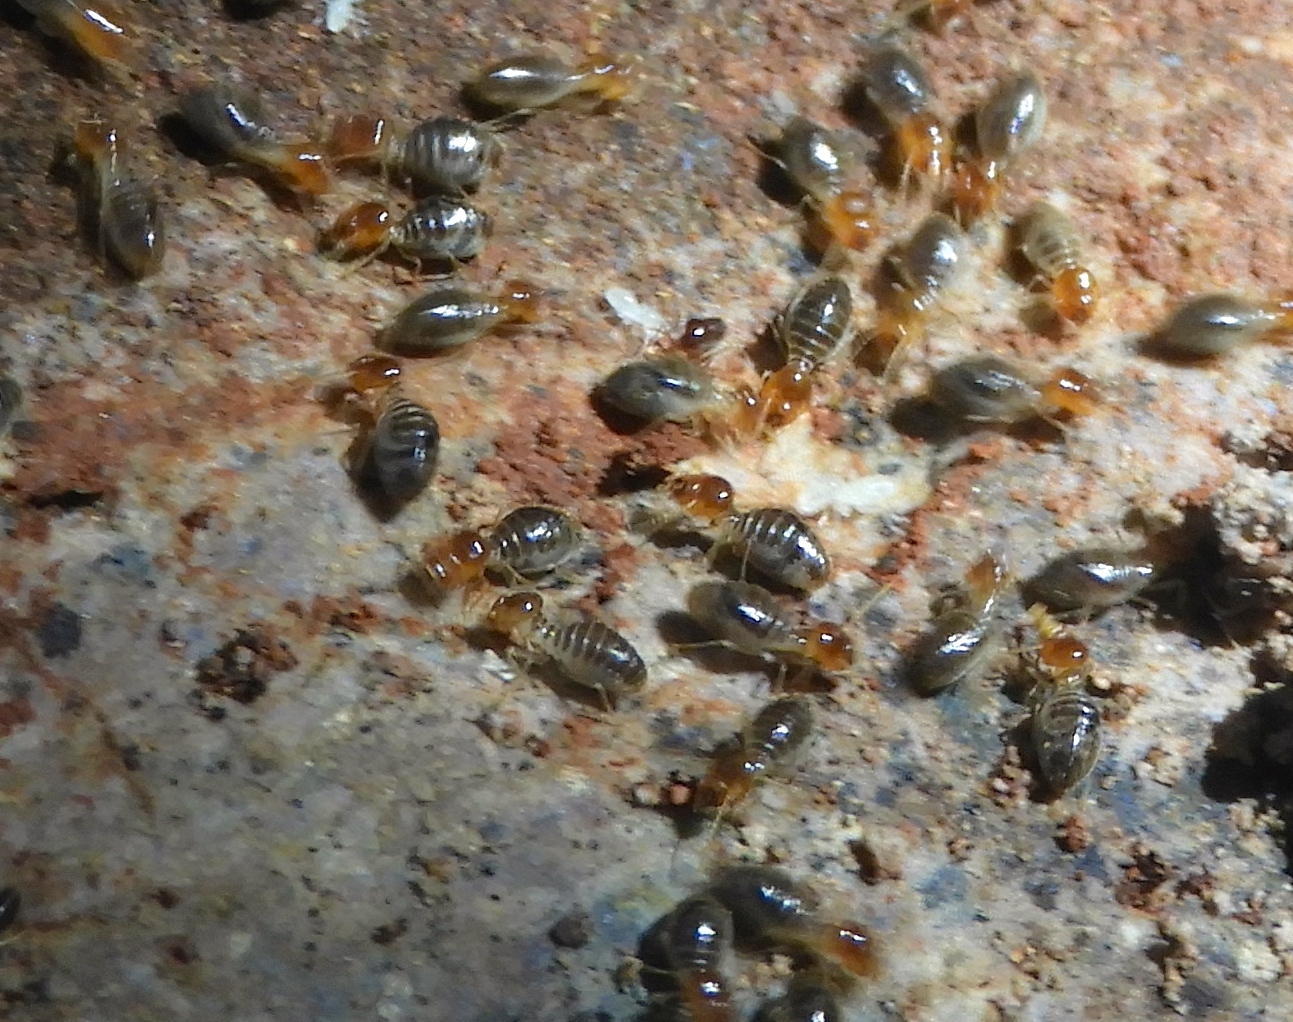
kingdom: Animalia
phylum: Arthropoda
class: Insecta
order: Blattodea
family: Termitidae
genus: Tenuirostritermes
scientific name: Tenuirostritermes
